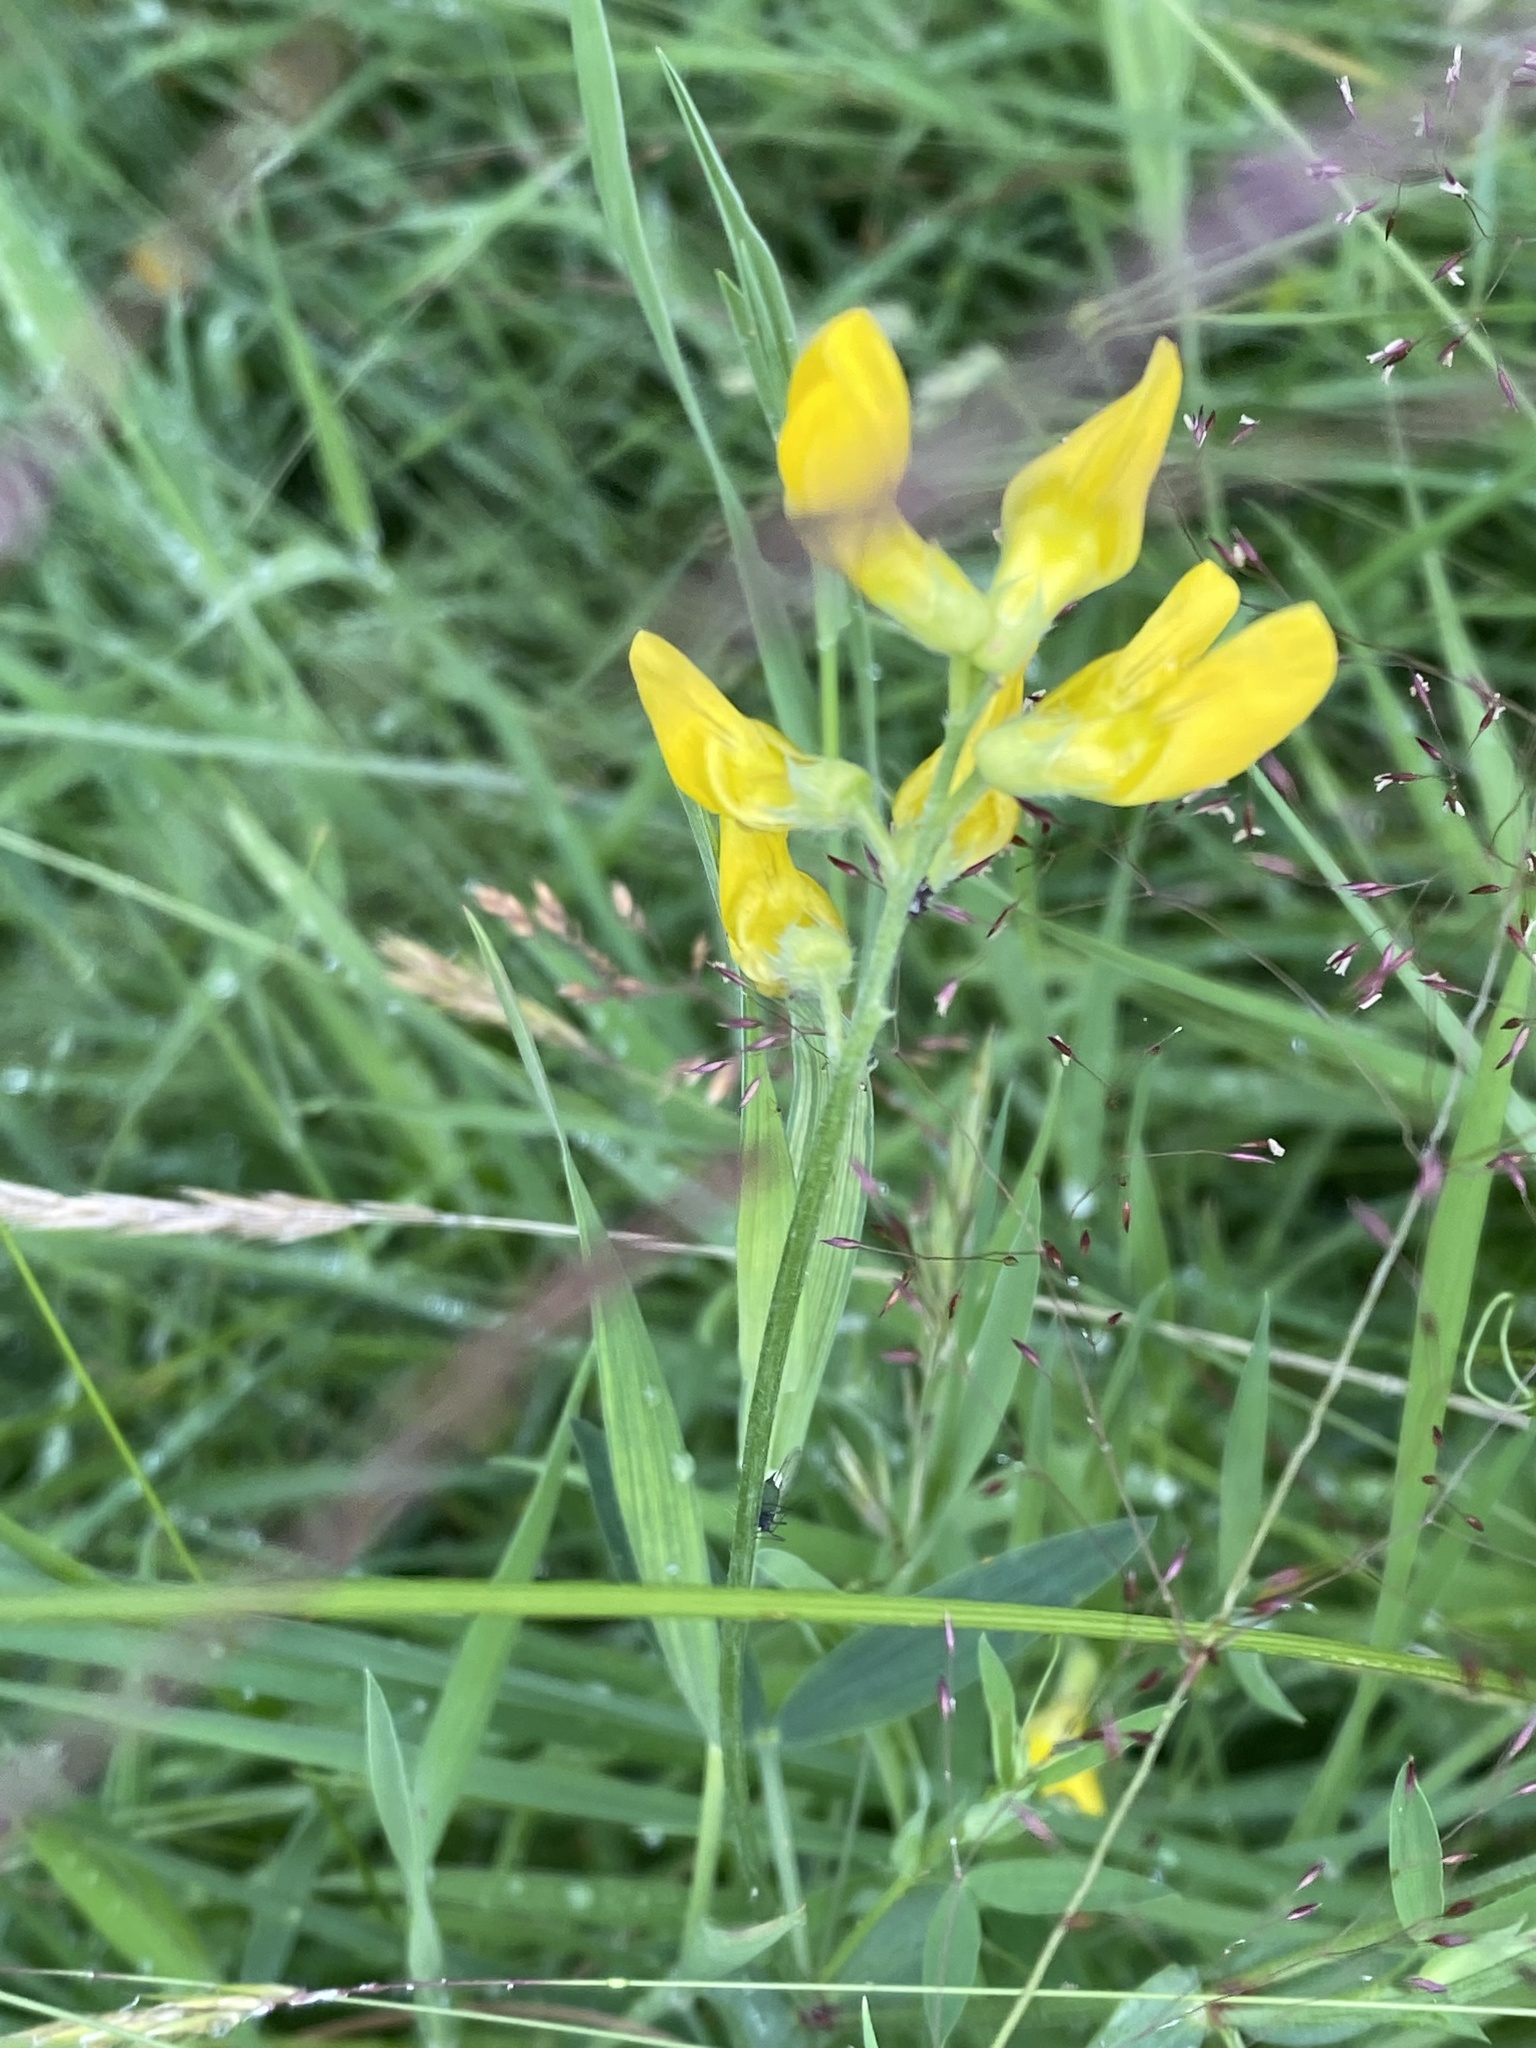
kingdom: Plantae
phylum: Tracheophyta
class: Magnoliopsida
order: Fabales
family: Fabaceae
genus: Lathyrus
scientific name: Lathyrus pratensis
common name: Meadow vetchling
